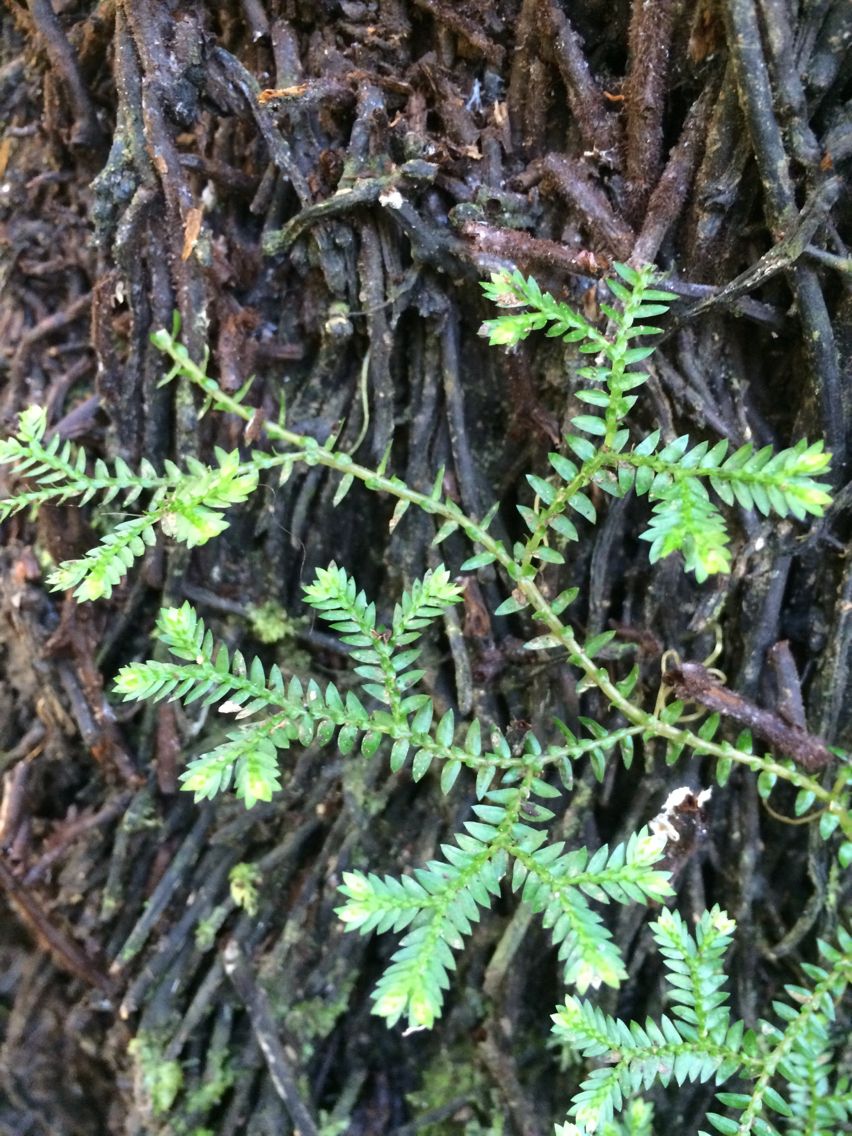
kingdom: Plantae
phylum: Tracheophyta
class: Lycopodiopsida
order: Selaginellales
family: Selaginellaceae
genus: Selaginella
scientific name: Selaginella kraussiana
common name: Krauss' spikemoss
